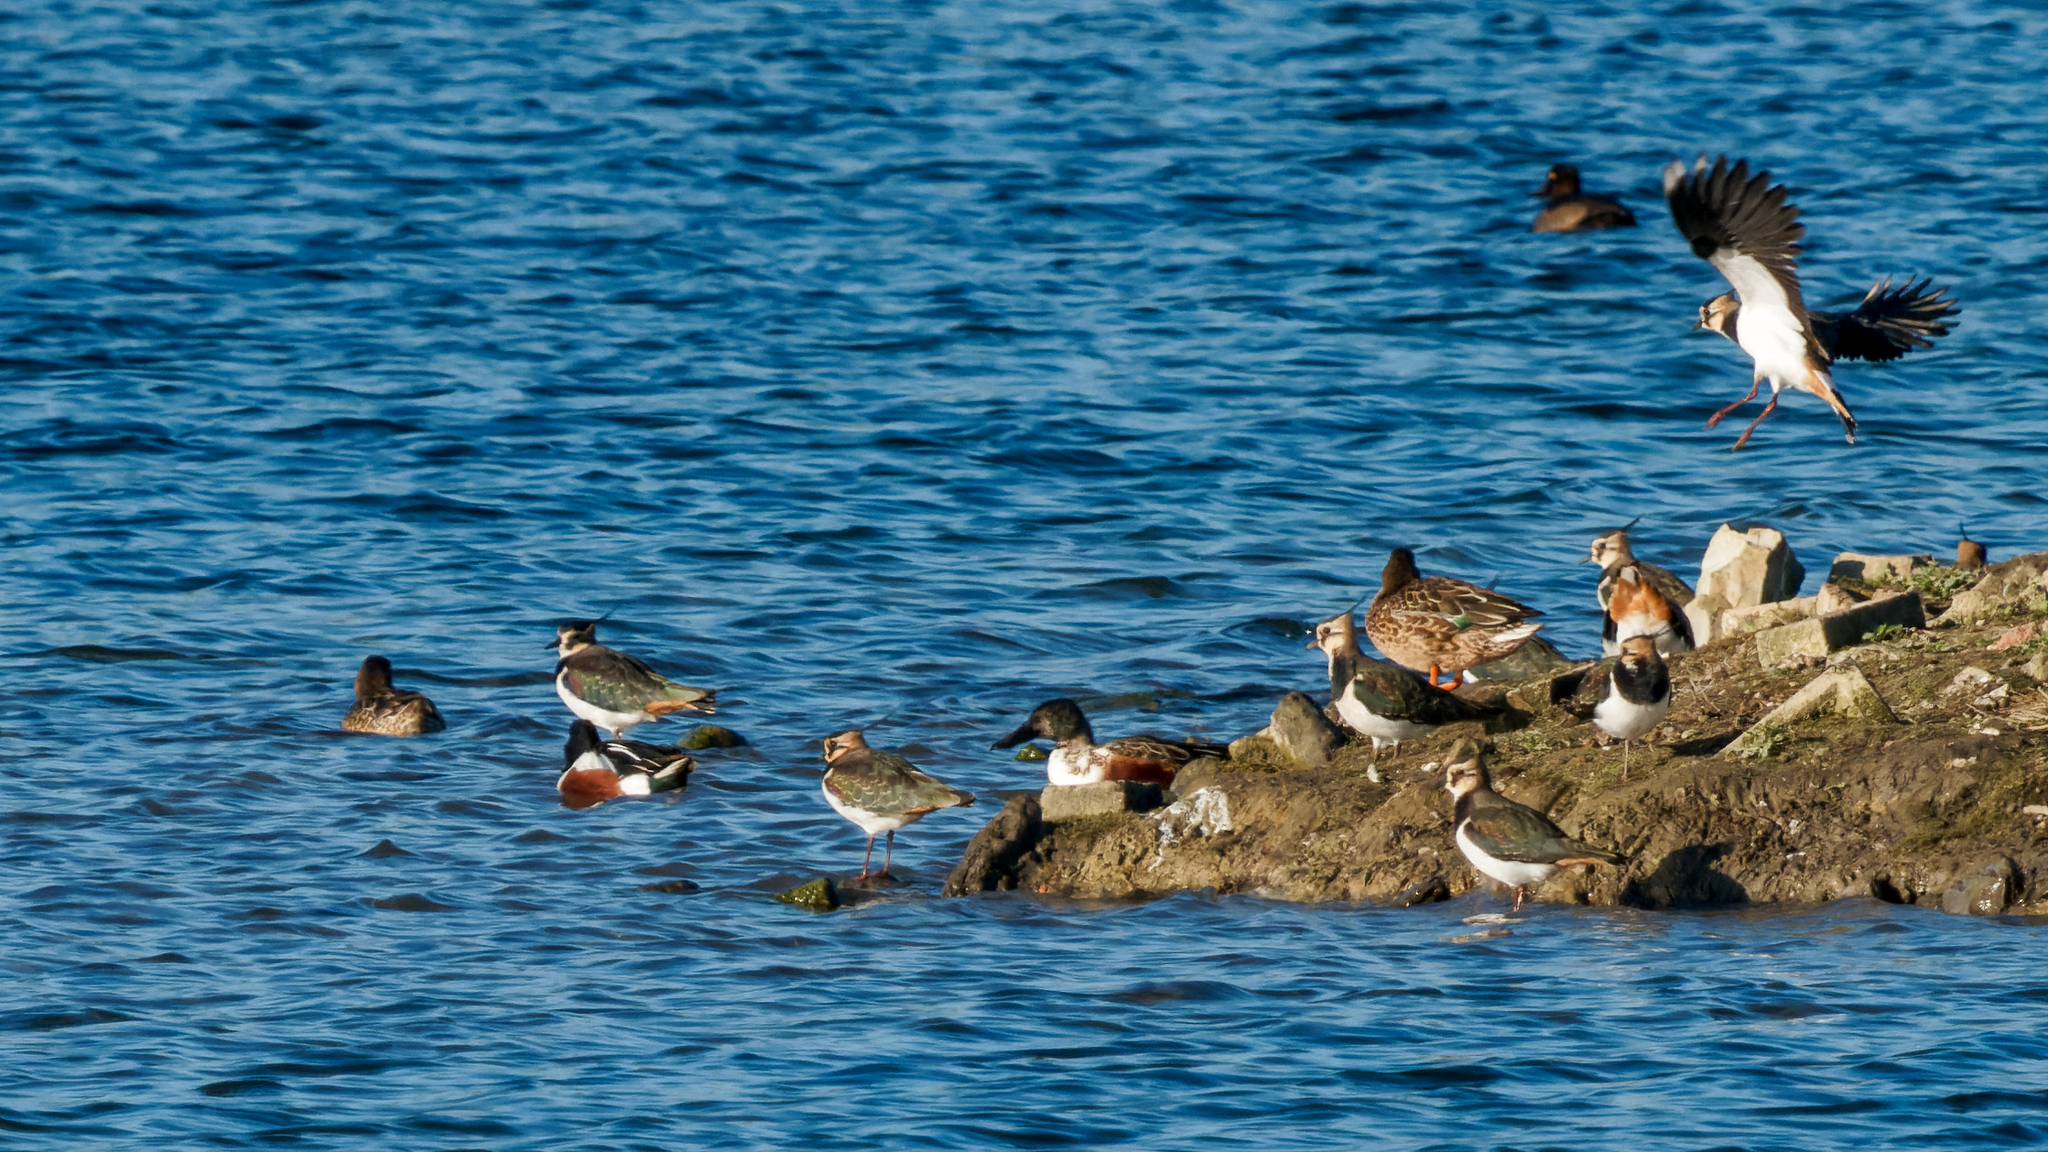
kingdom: Animalia
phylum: Chordata
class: Aves
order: Anseriformes
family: Anatidae
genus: Spatula
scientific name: Spatula clypeata
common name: Northern shoveler
